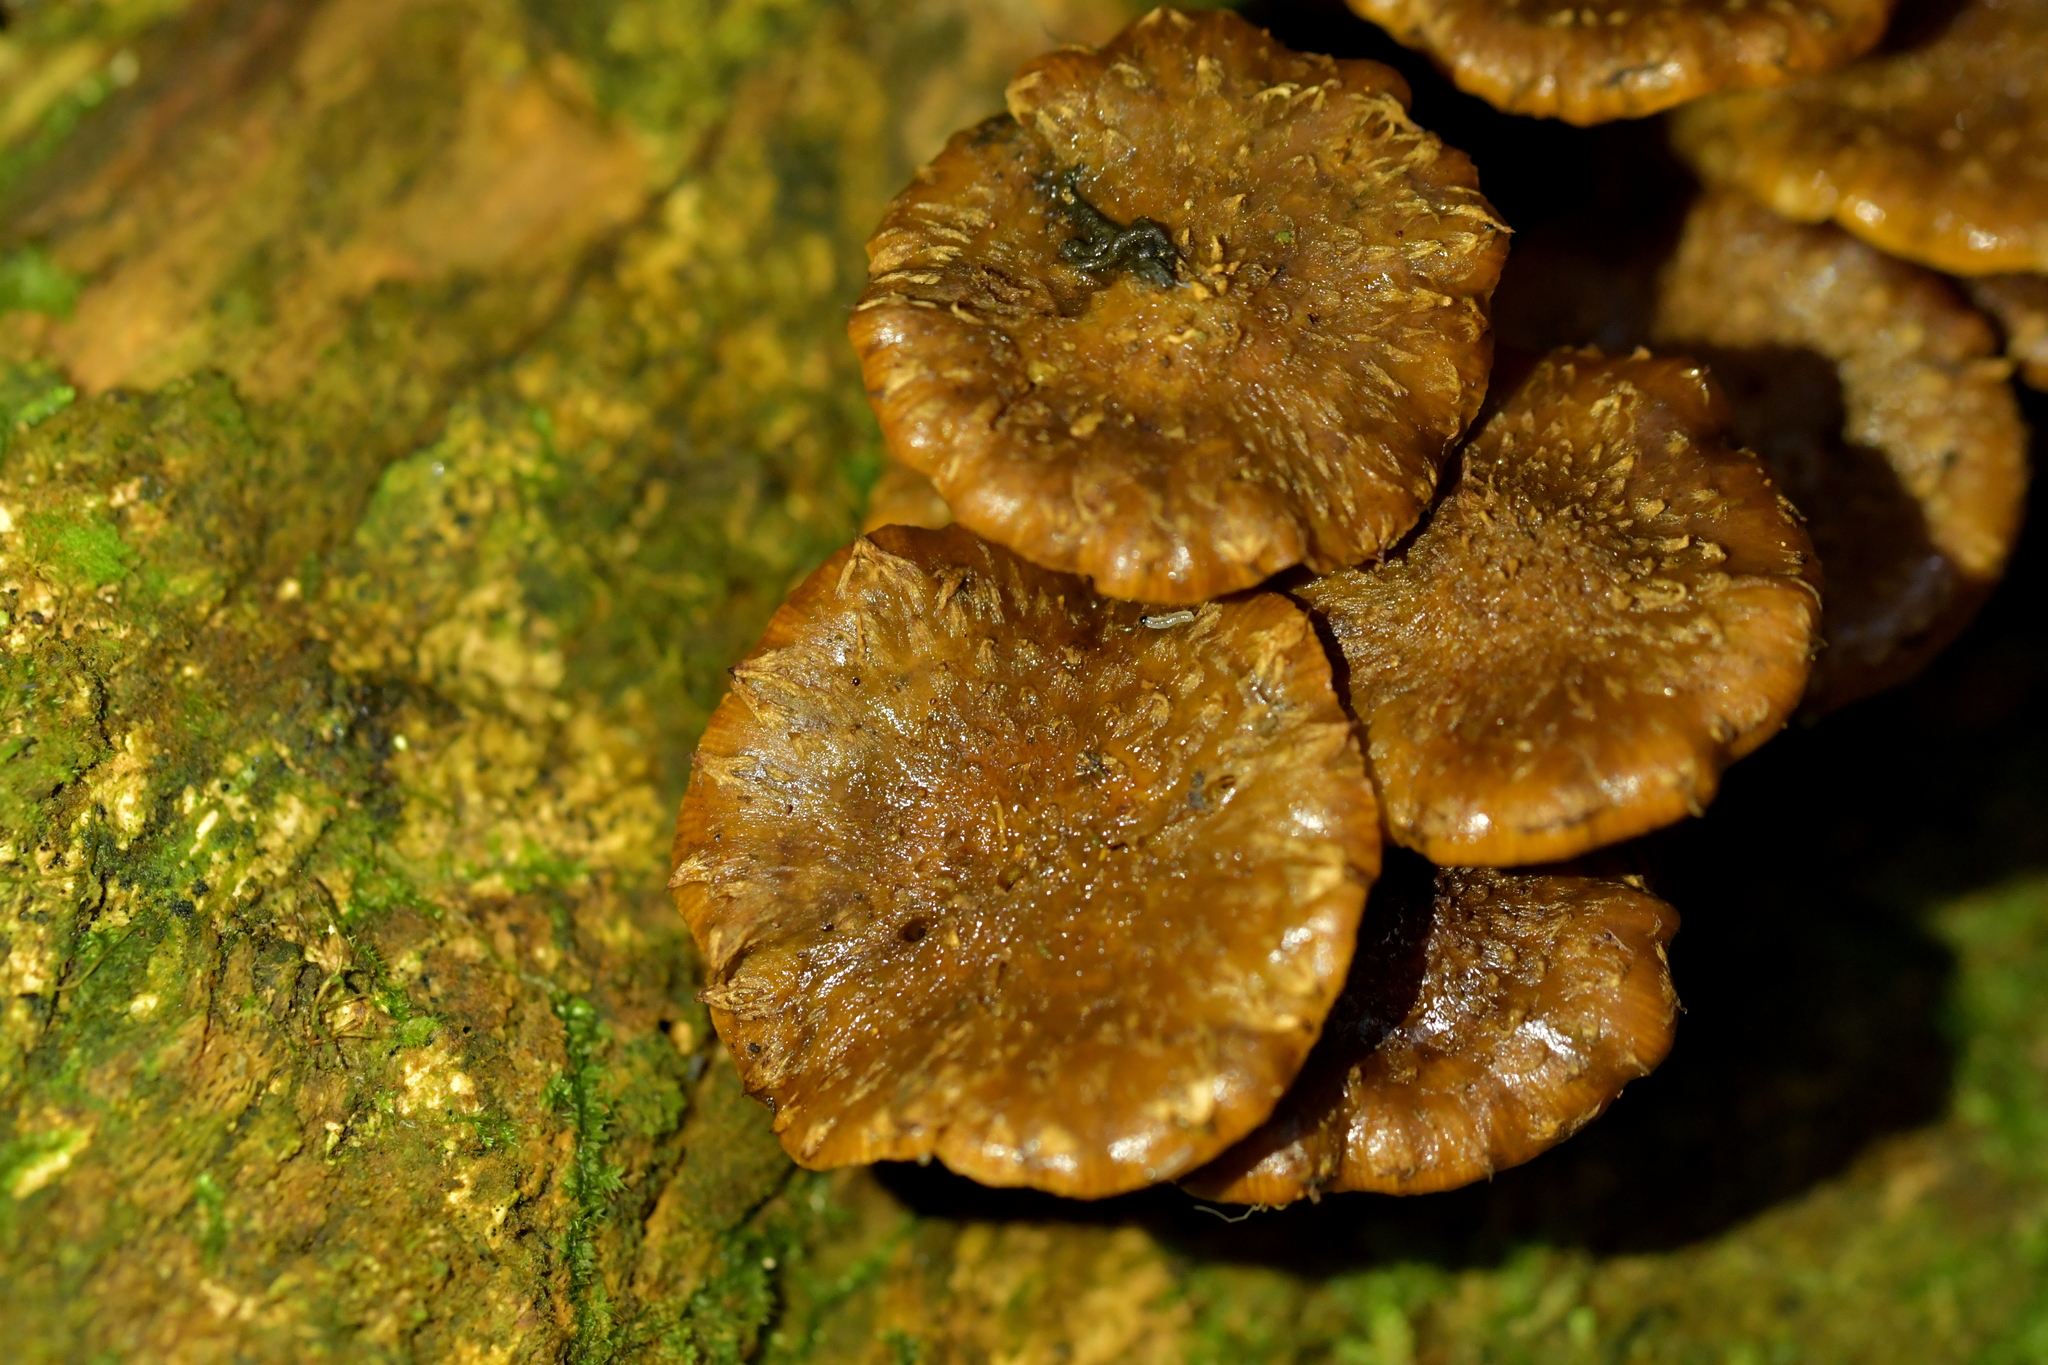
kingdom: Fungi
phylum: Basidiomycota
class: Agaricomycetes
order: Agaricales
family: Strophariaceae
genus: Pholiota
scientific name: Pholiota subflammans
